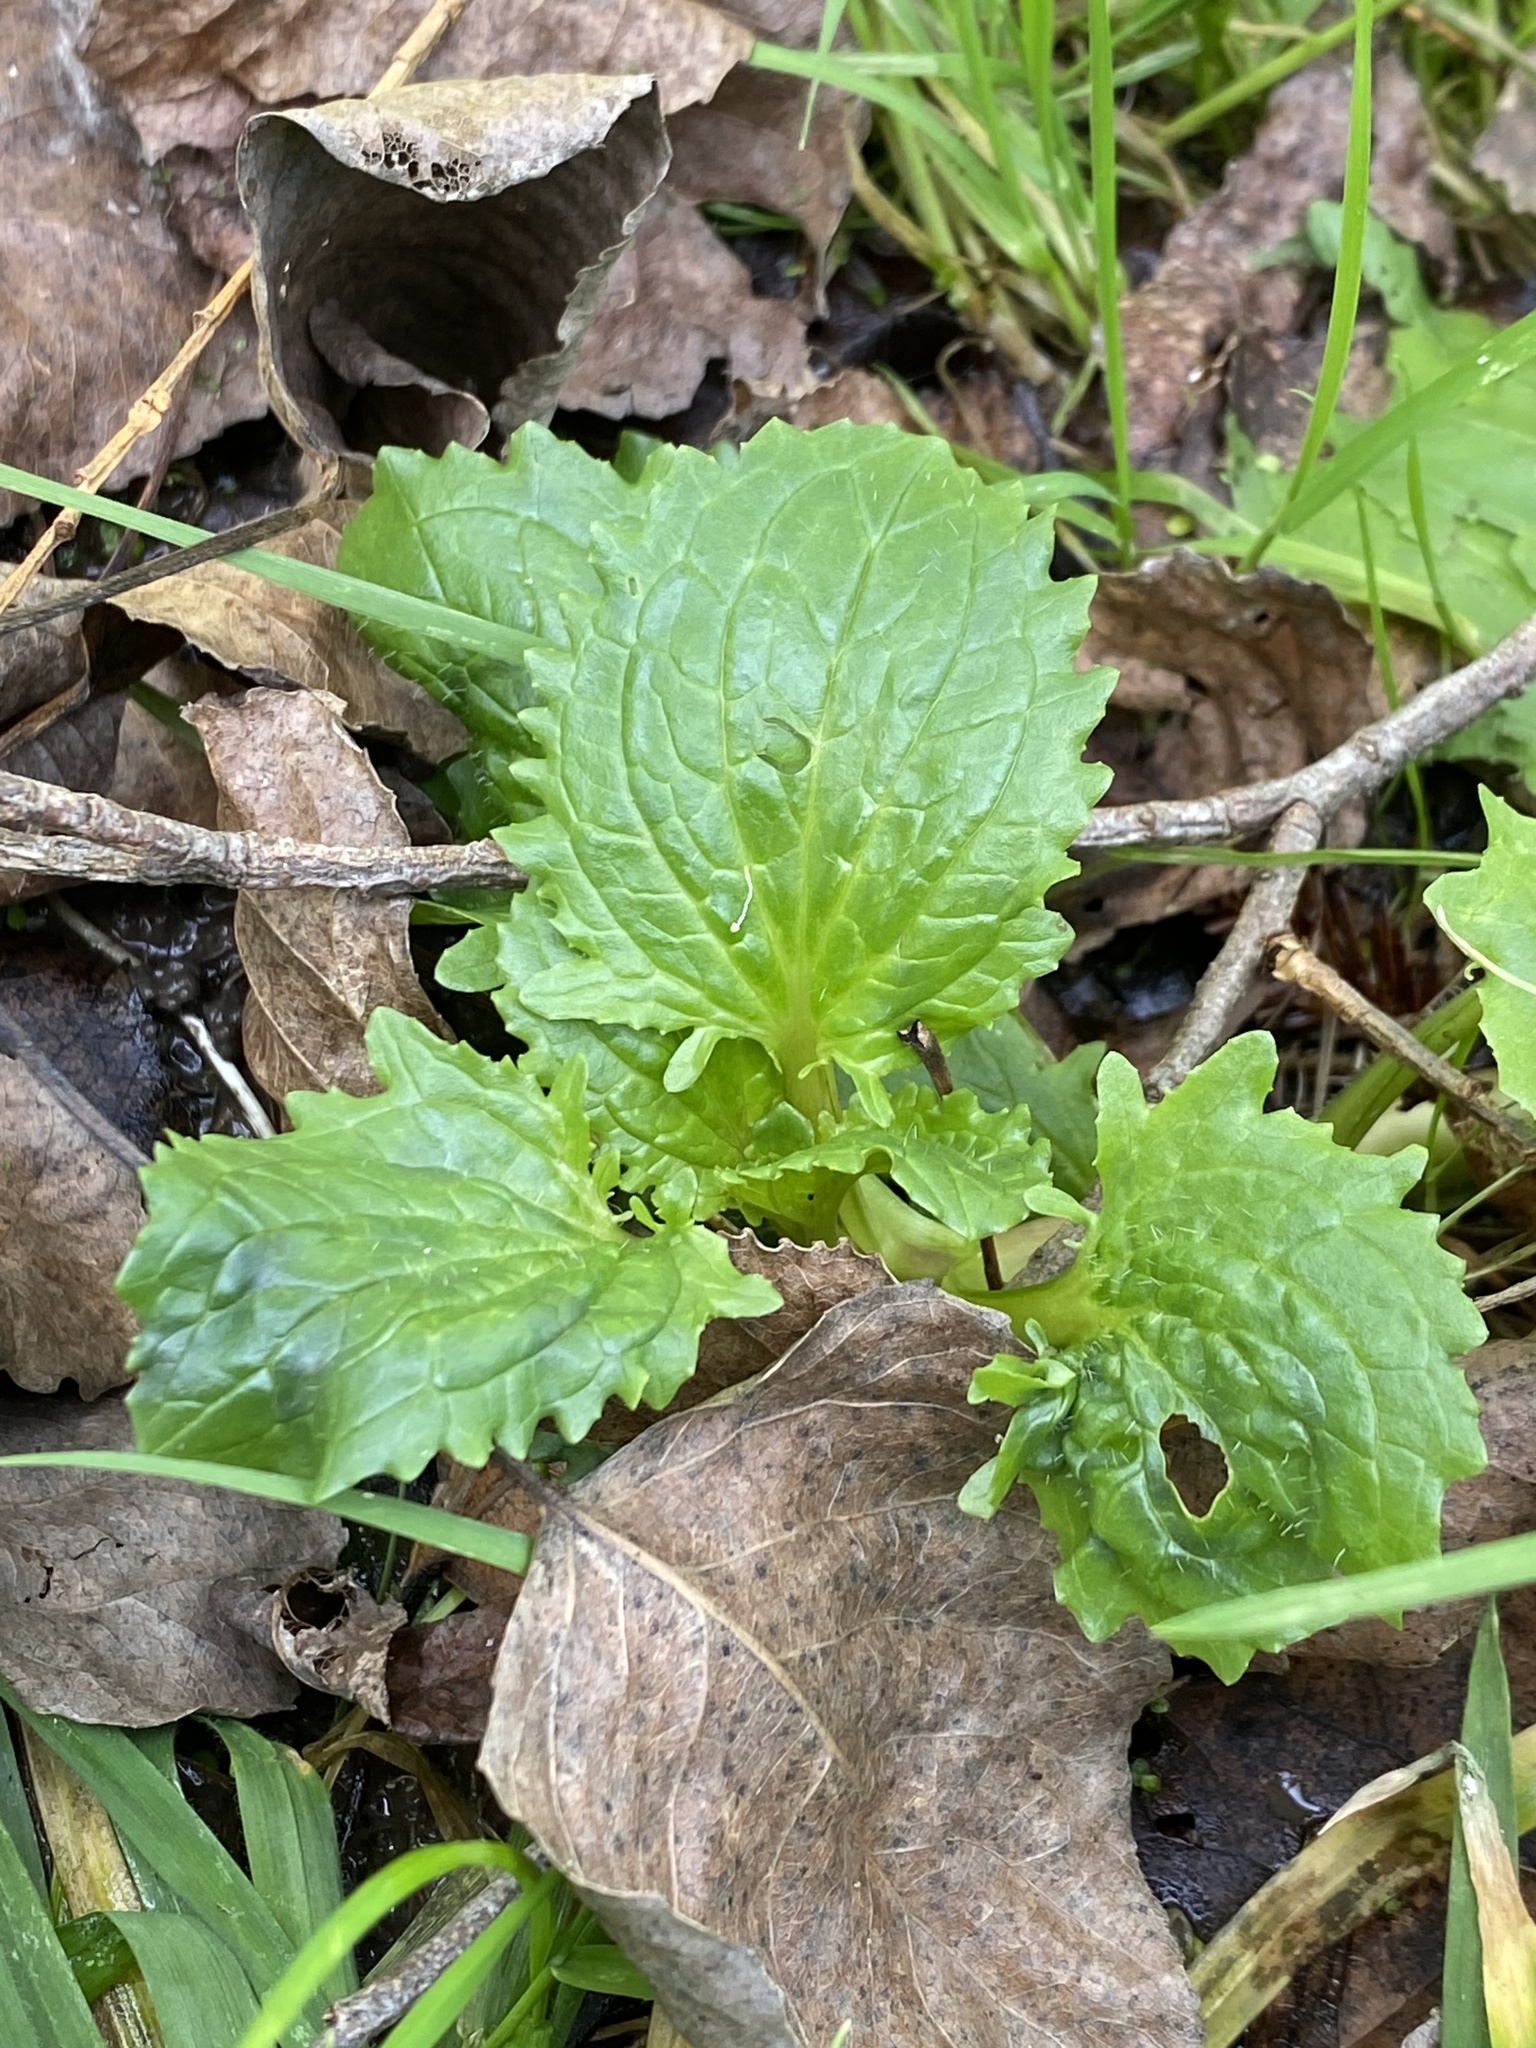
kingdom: Plantae
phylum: Tracheophyta
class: Magnoliopsida
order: Lamiales
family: Phrymaceae
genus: Erythranthe
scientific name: Erythranthe guttata
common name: Monkeyflower
